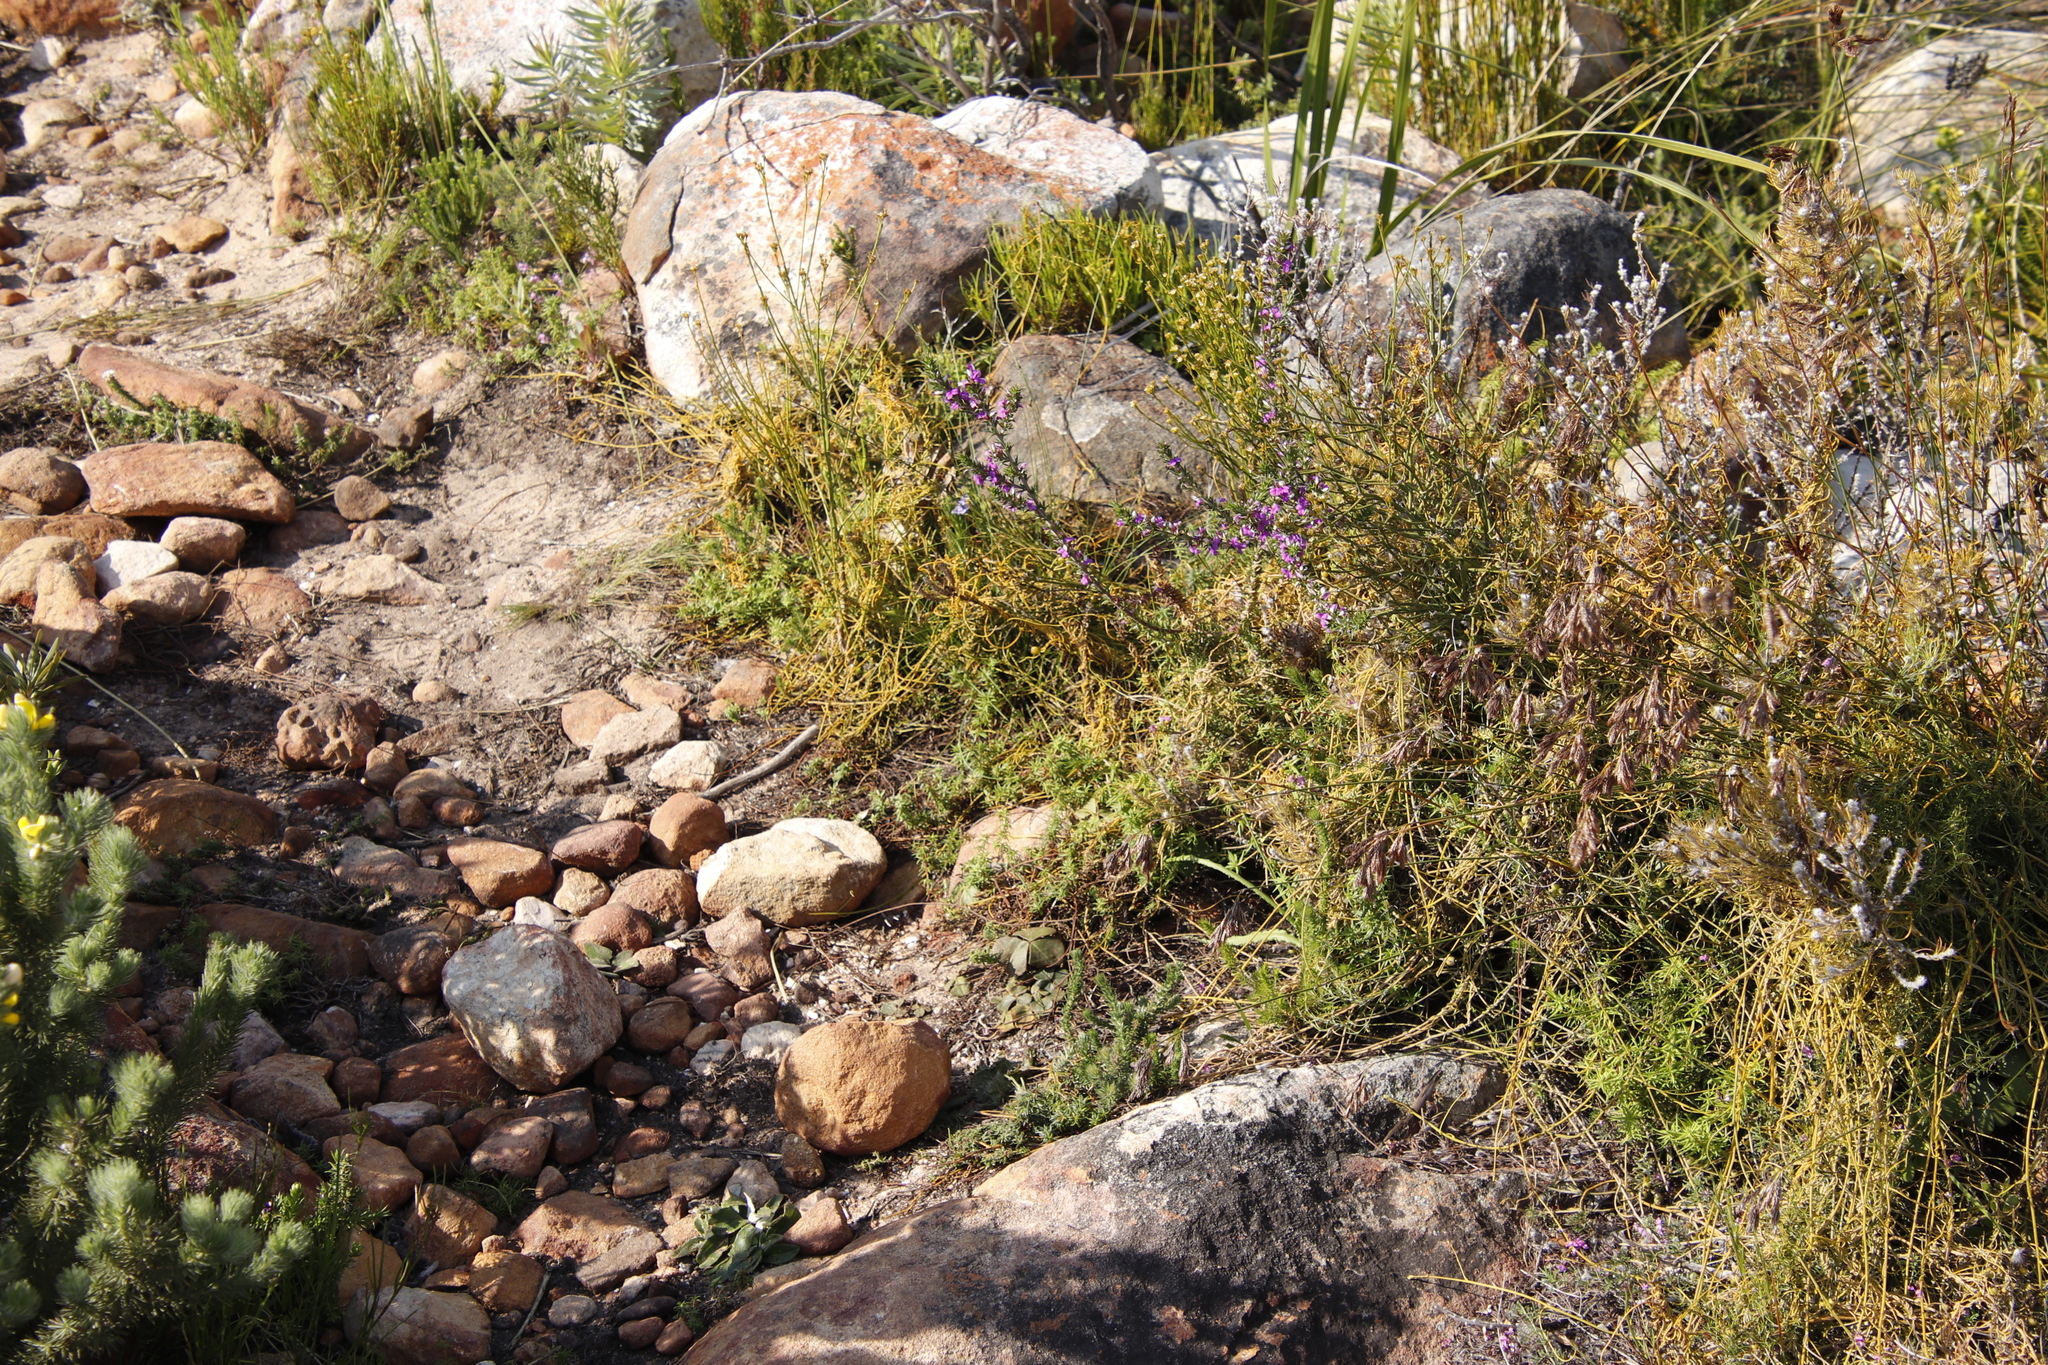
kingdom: Plantae
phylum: Tracheophyta
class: Magnoliopsida
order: Fabales
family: Polygalaceae
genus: Muraltia
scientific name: Muraltia heisteria
